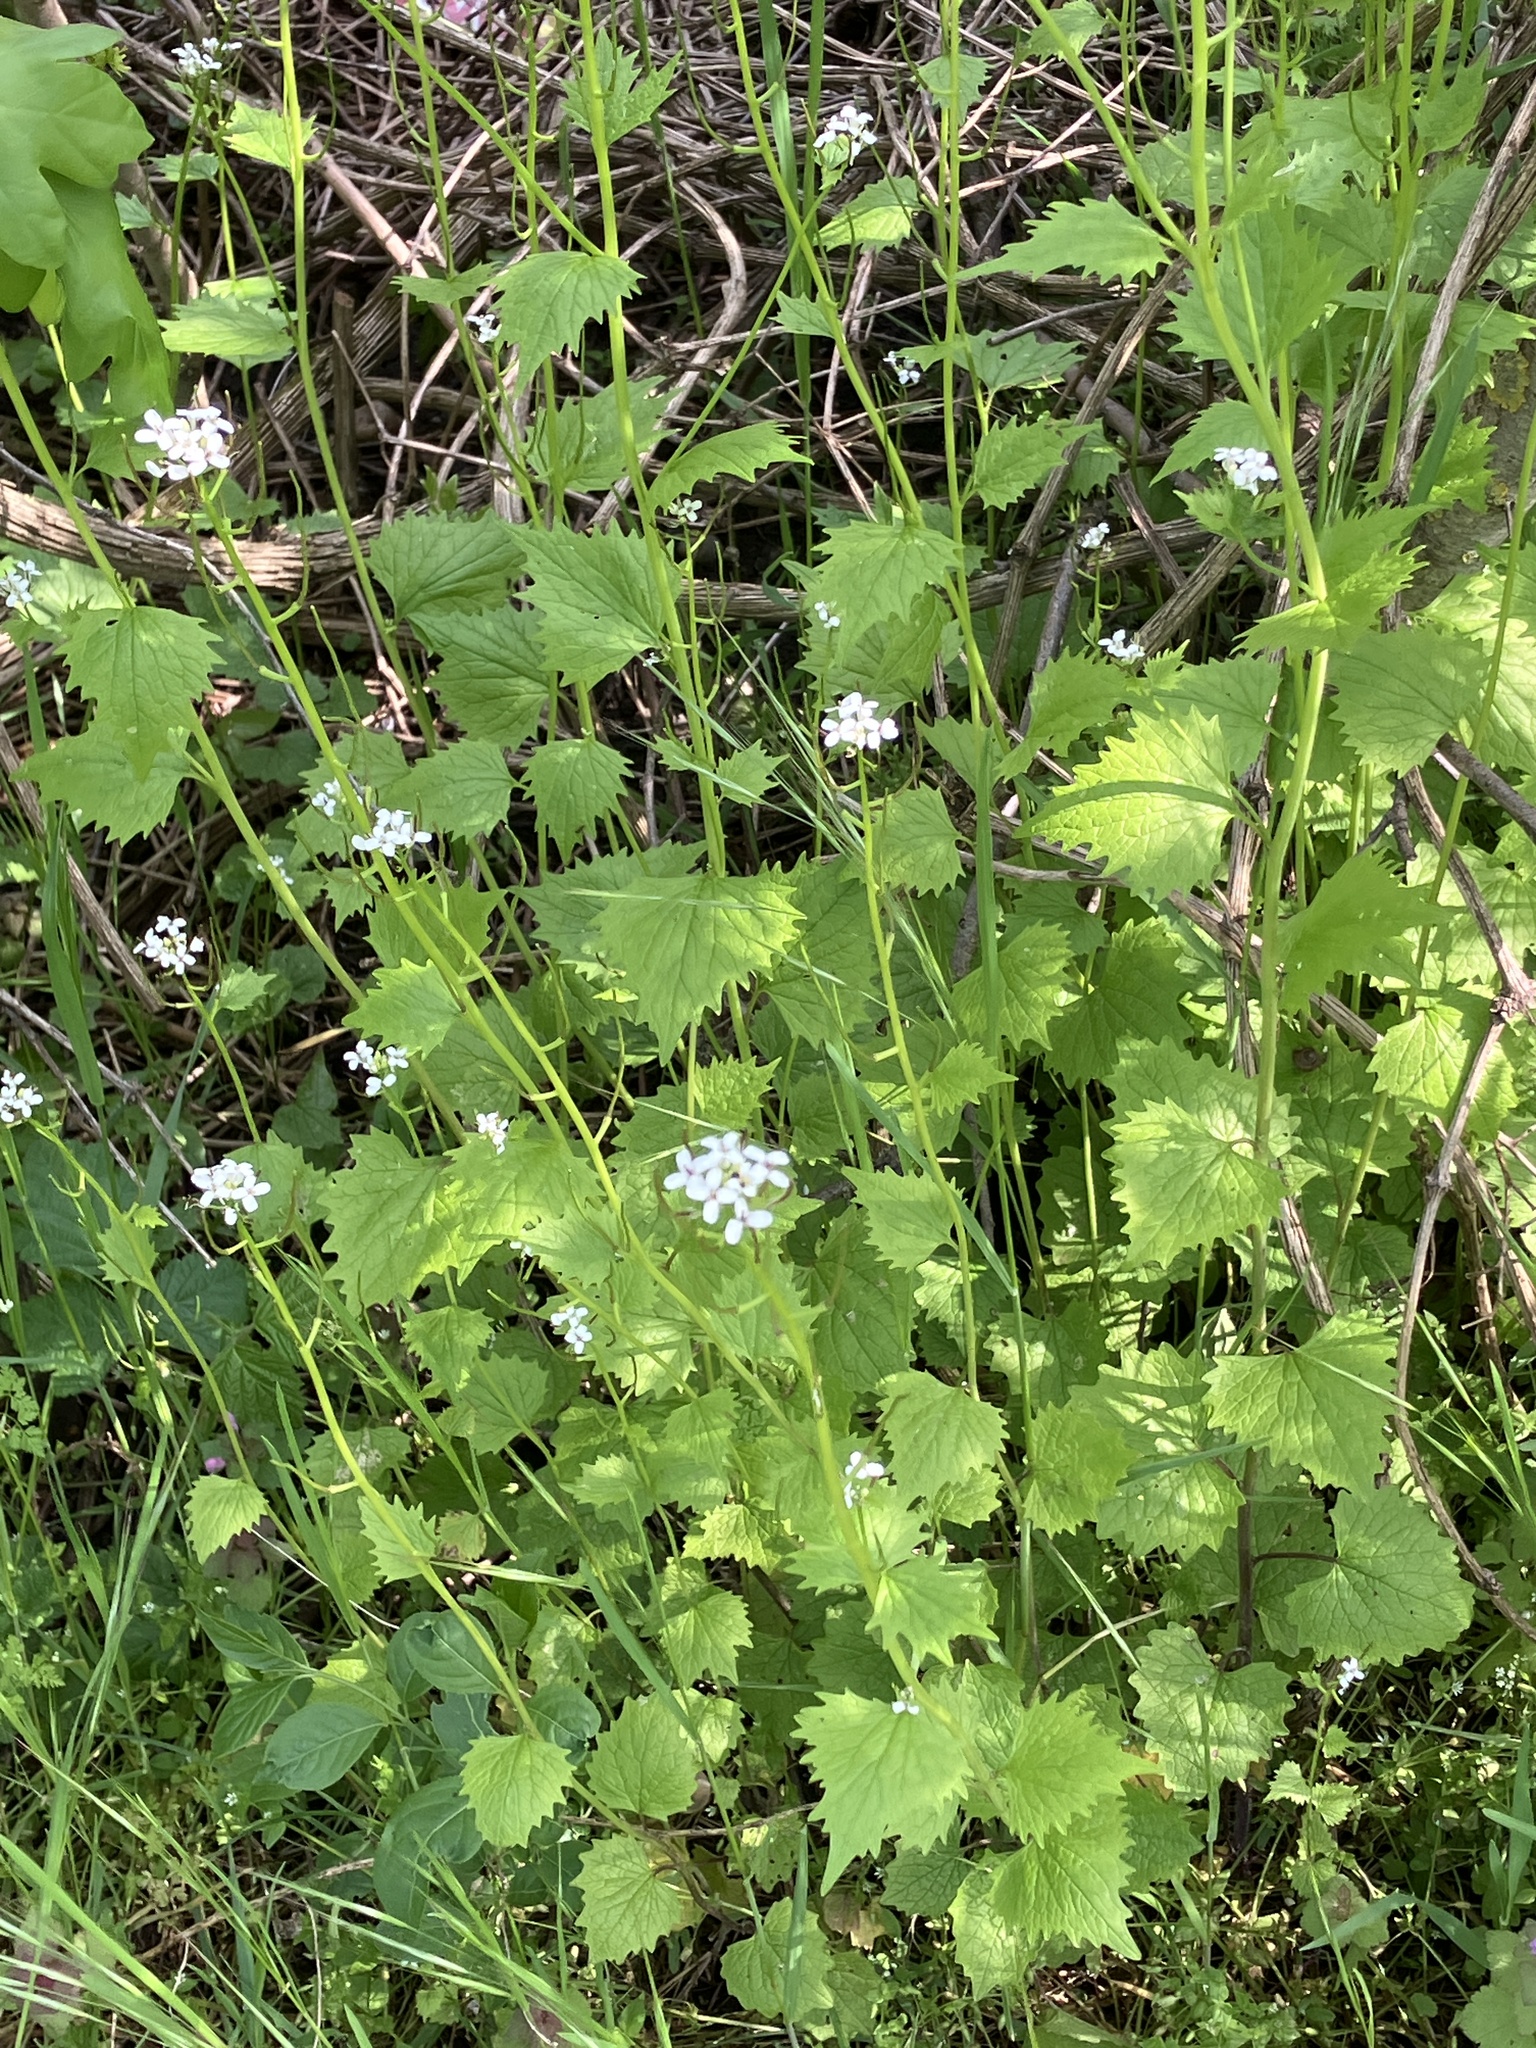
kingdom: Plantae
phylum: Tracheophyta
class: Magnoliopsida
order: Brassicales
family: Brassicaceae
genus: Alliaria
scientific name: Alliaria petiolata
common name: Garlic mustard
